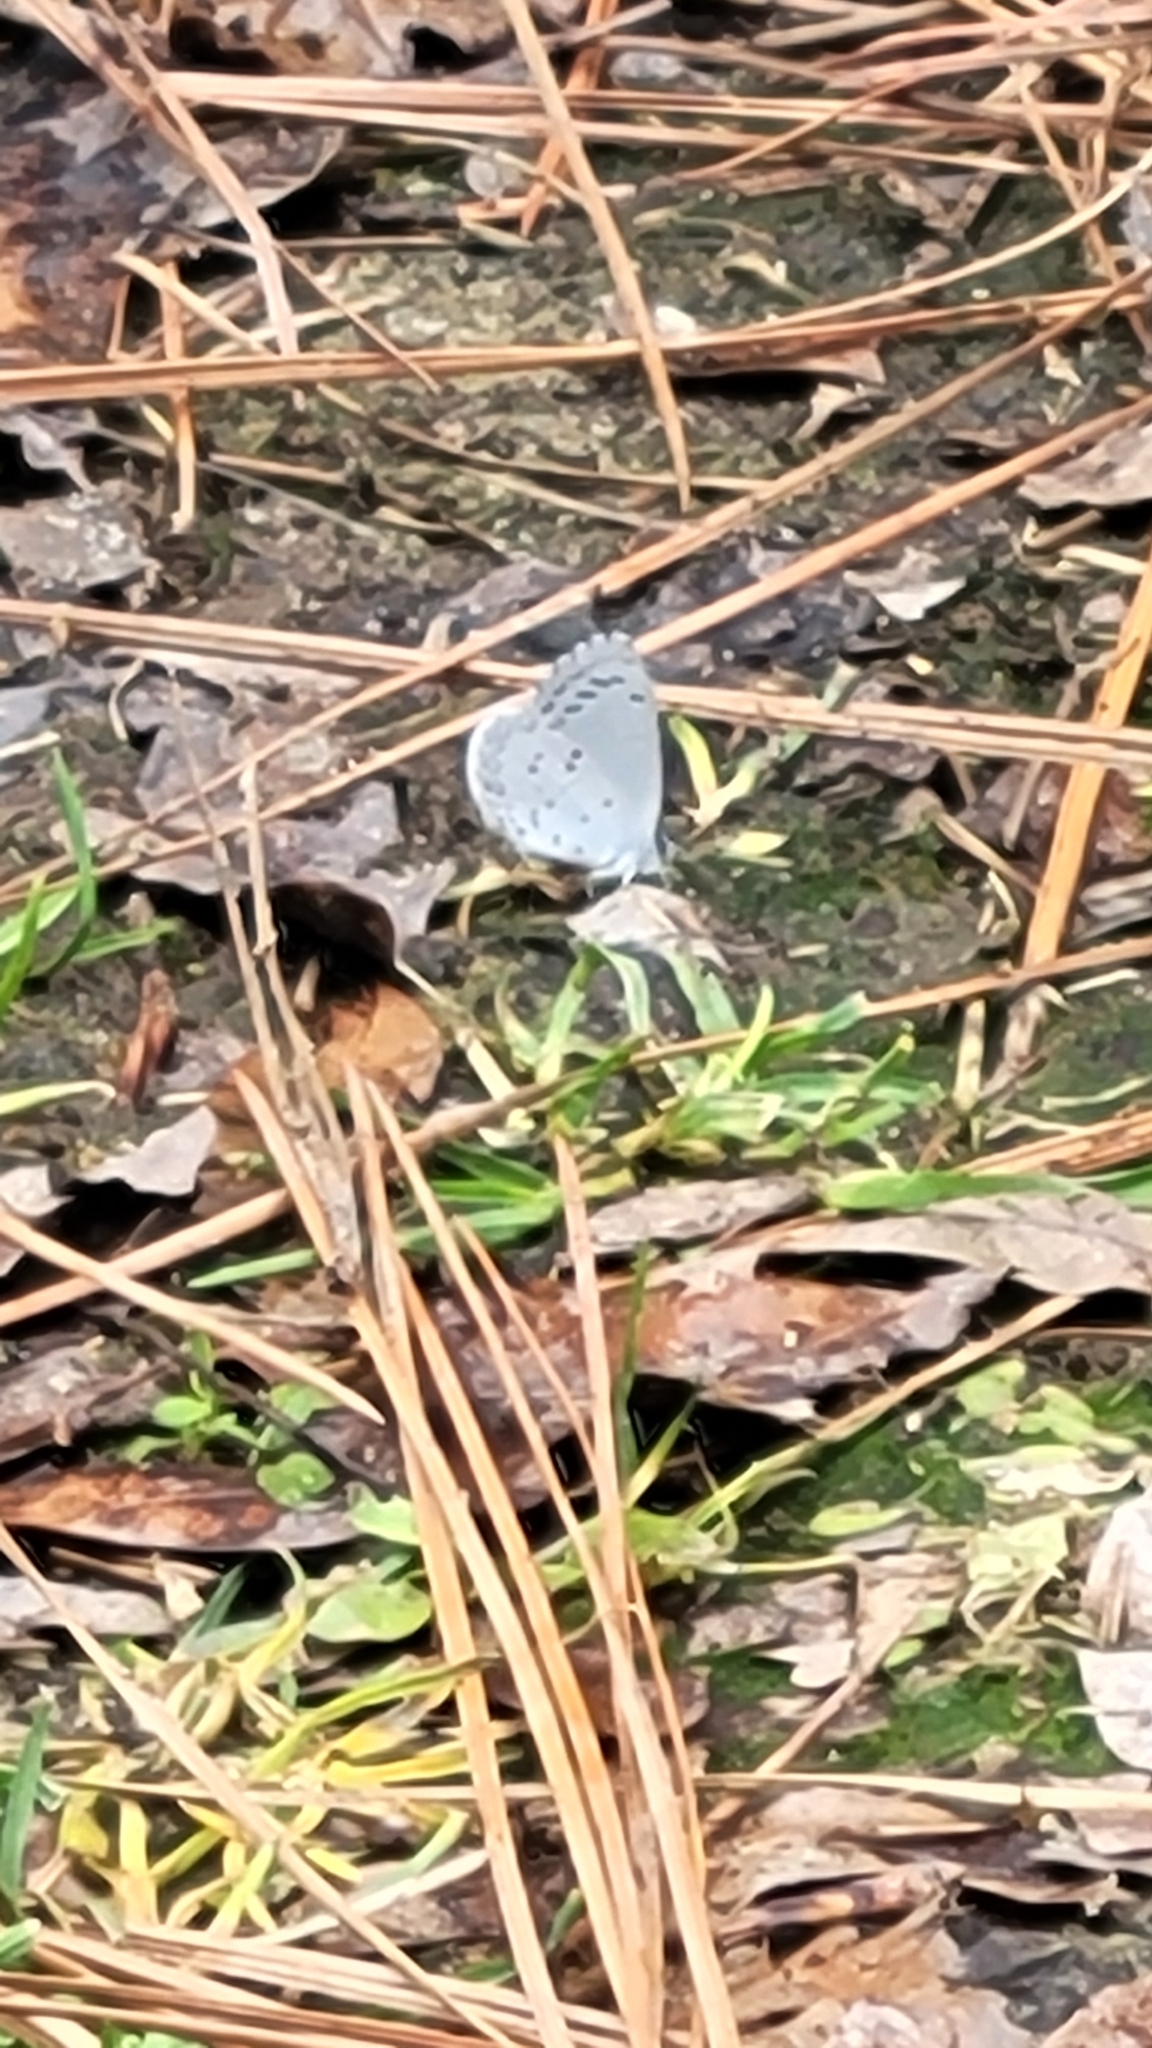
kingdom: Animalia
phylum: Arthropoda
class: Insecta
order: Lepidoptera
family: Lycaenidae
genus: Cyaniris
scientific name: Cyaniris neglecta
